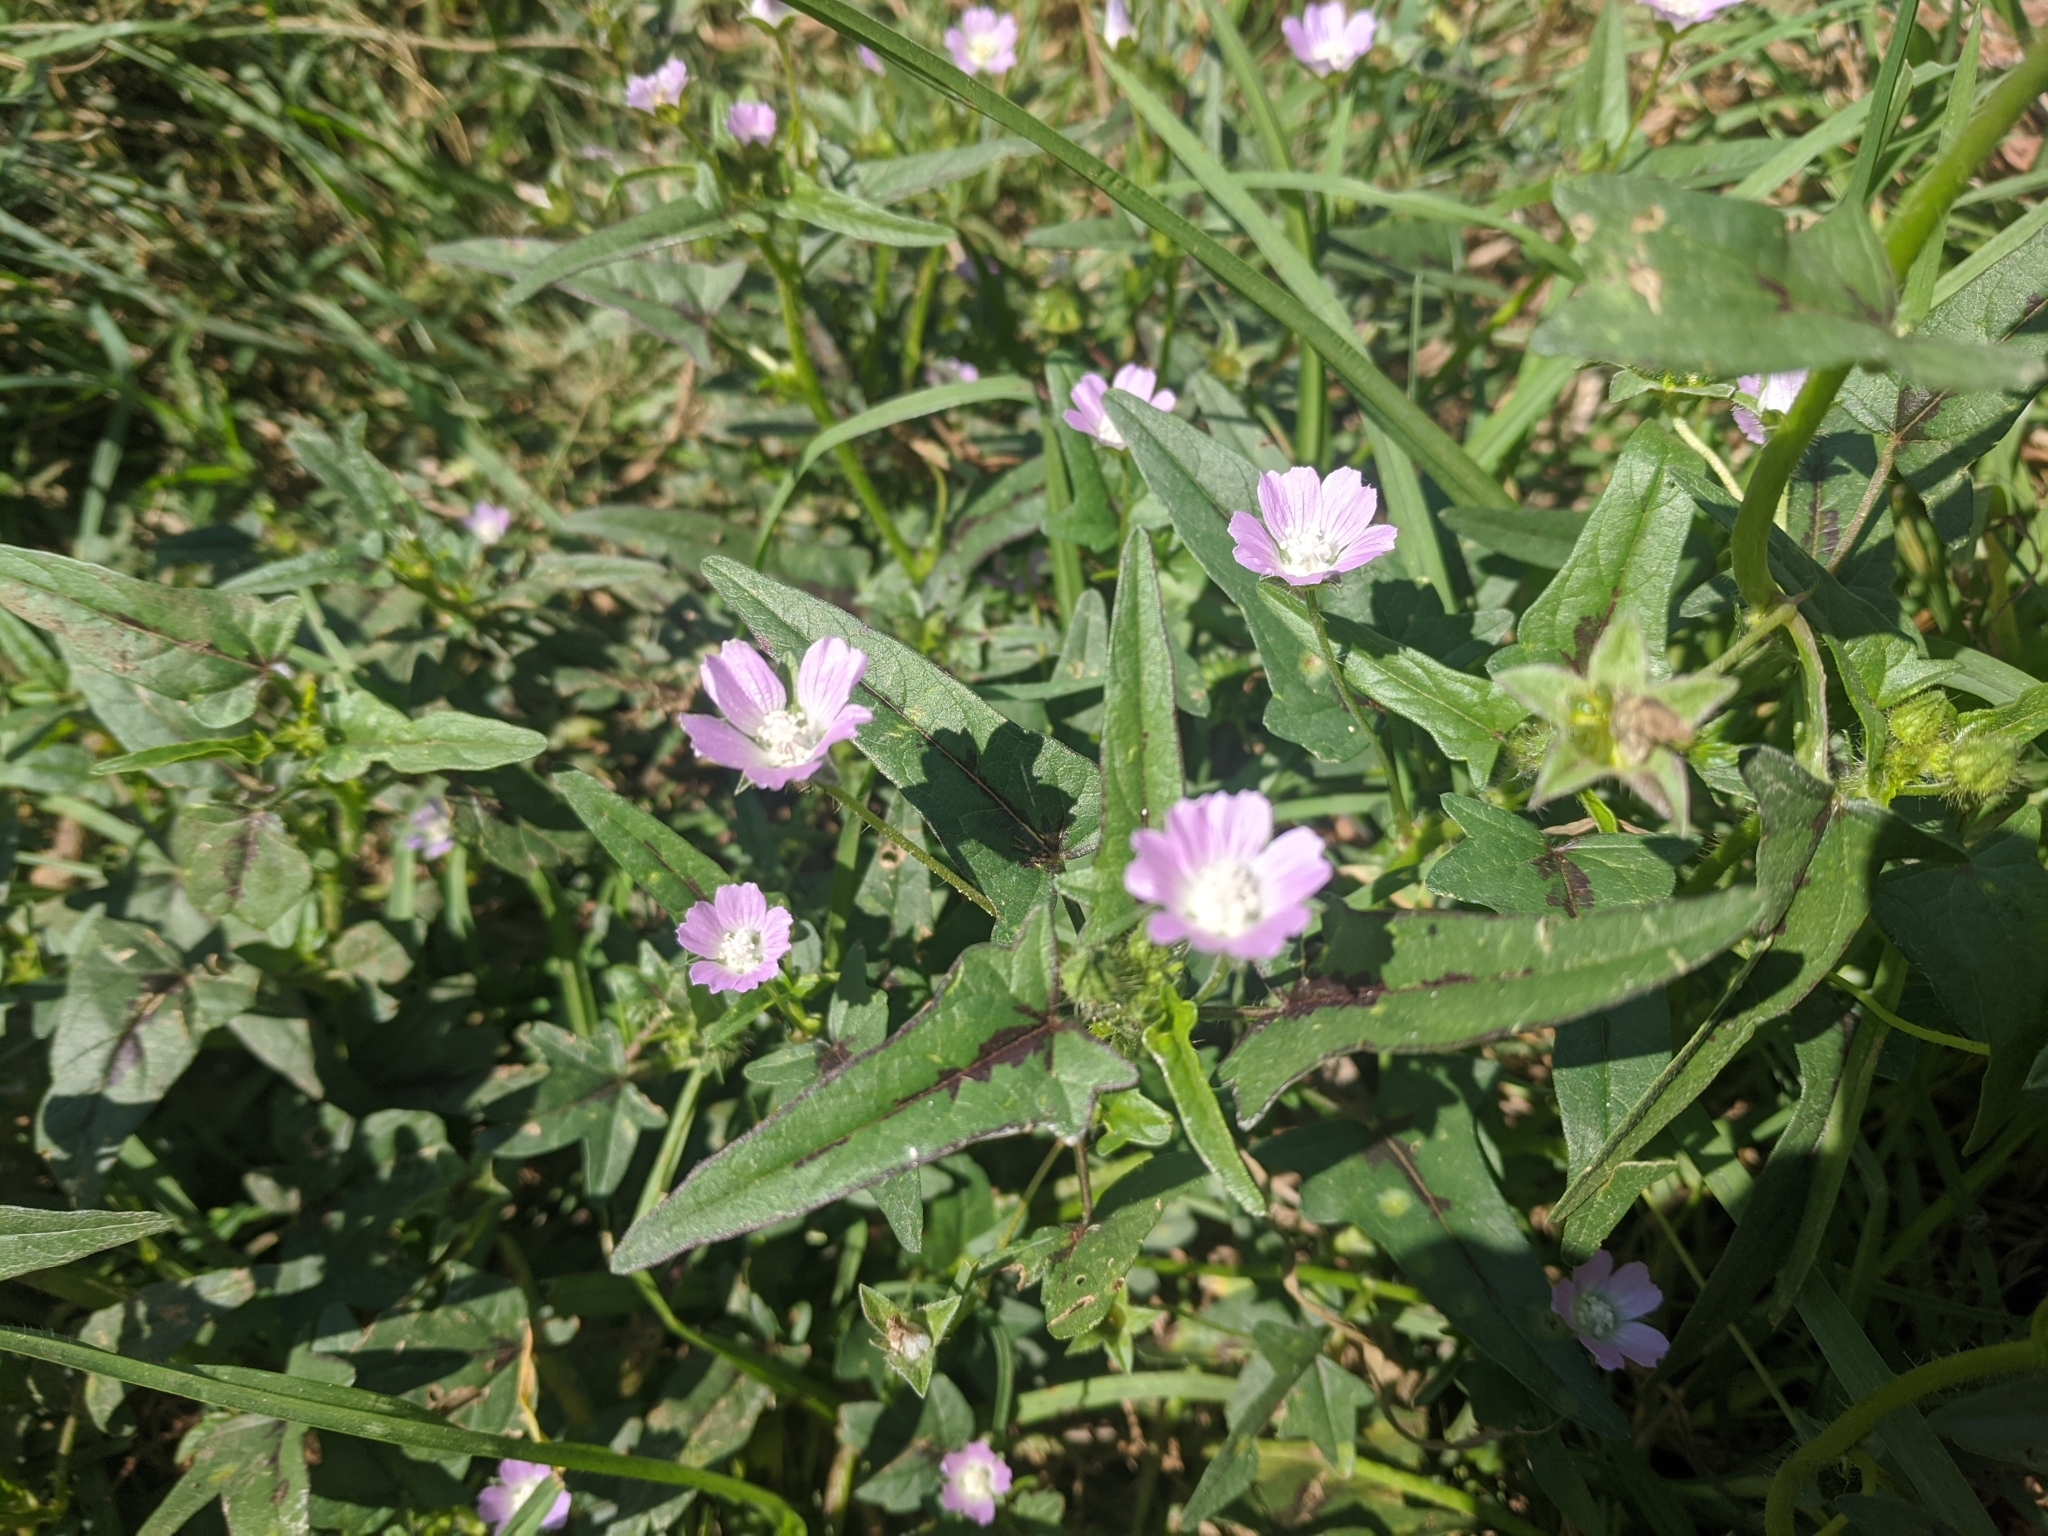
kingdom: Plantae
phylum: Tracheophyta
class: Magnoliopsida
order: Malvales
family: Malvaceae
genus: Anoda
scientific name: Anoda cristata
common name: Spurred anoda
